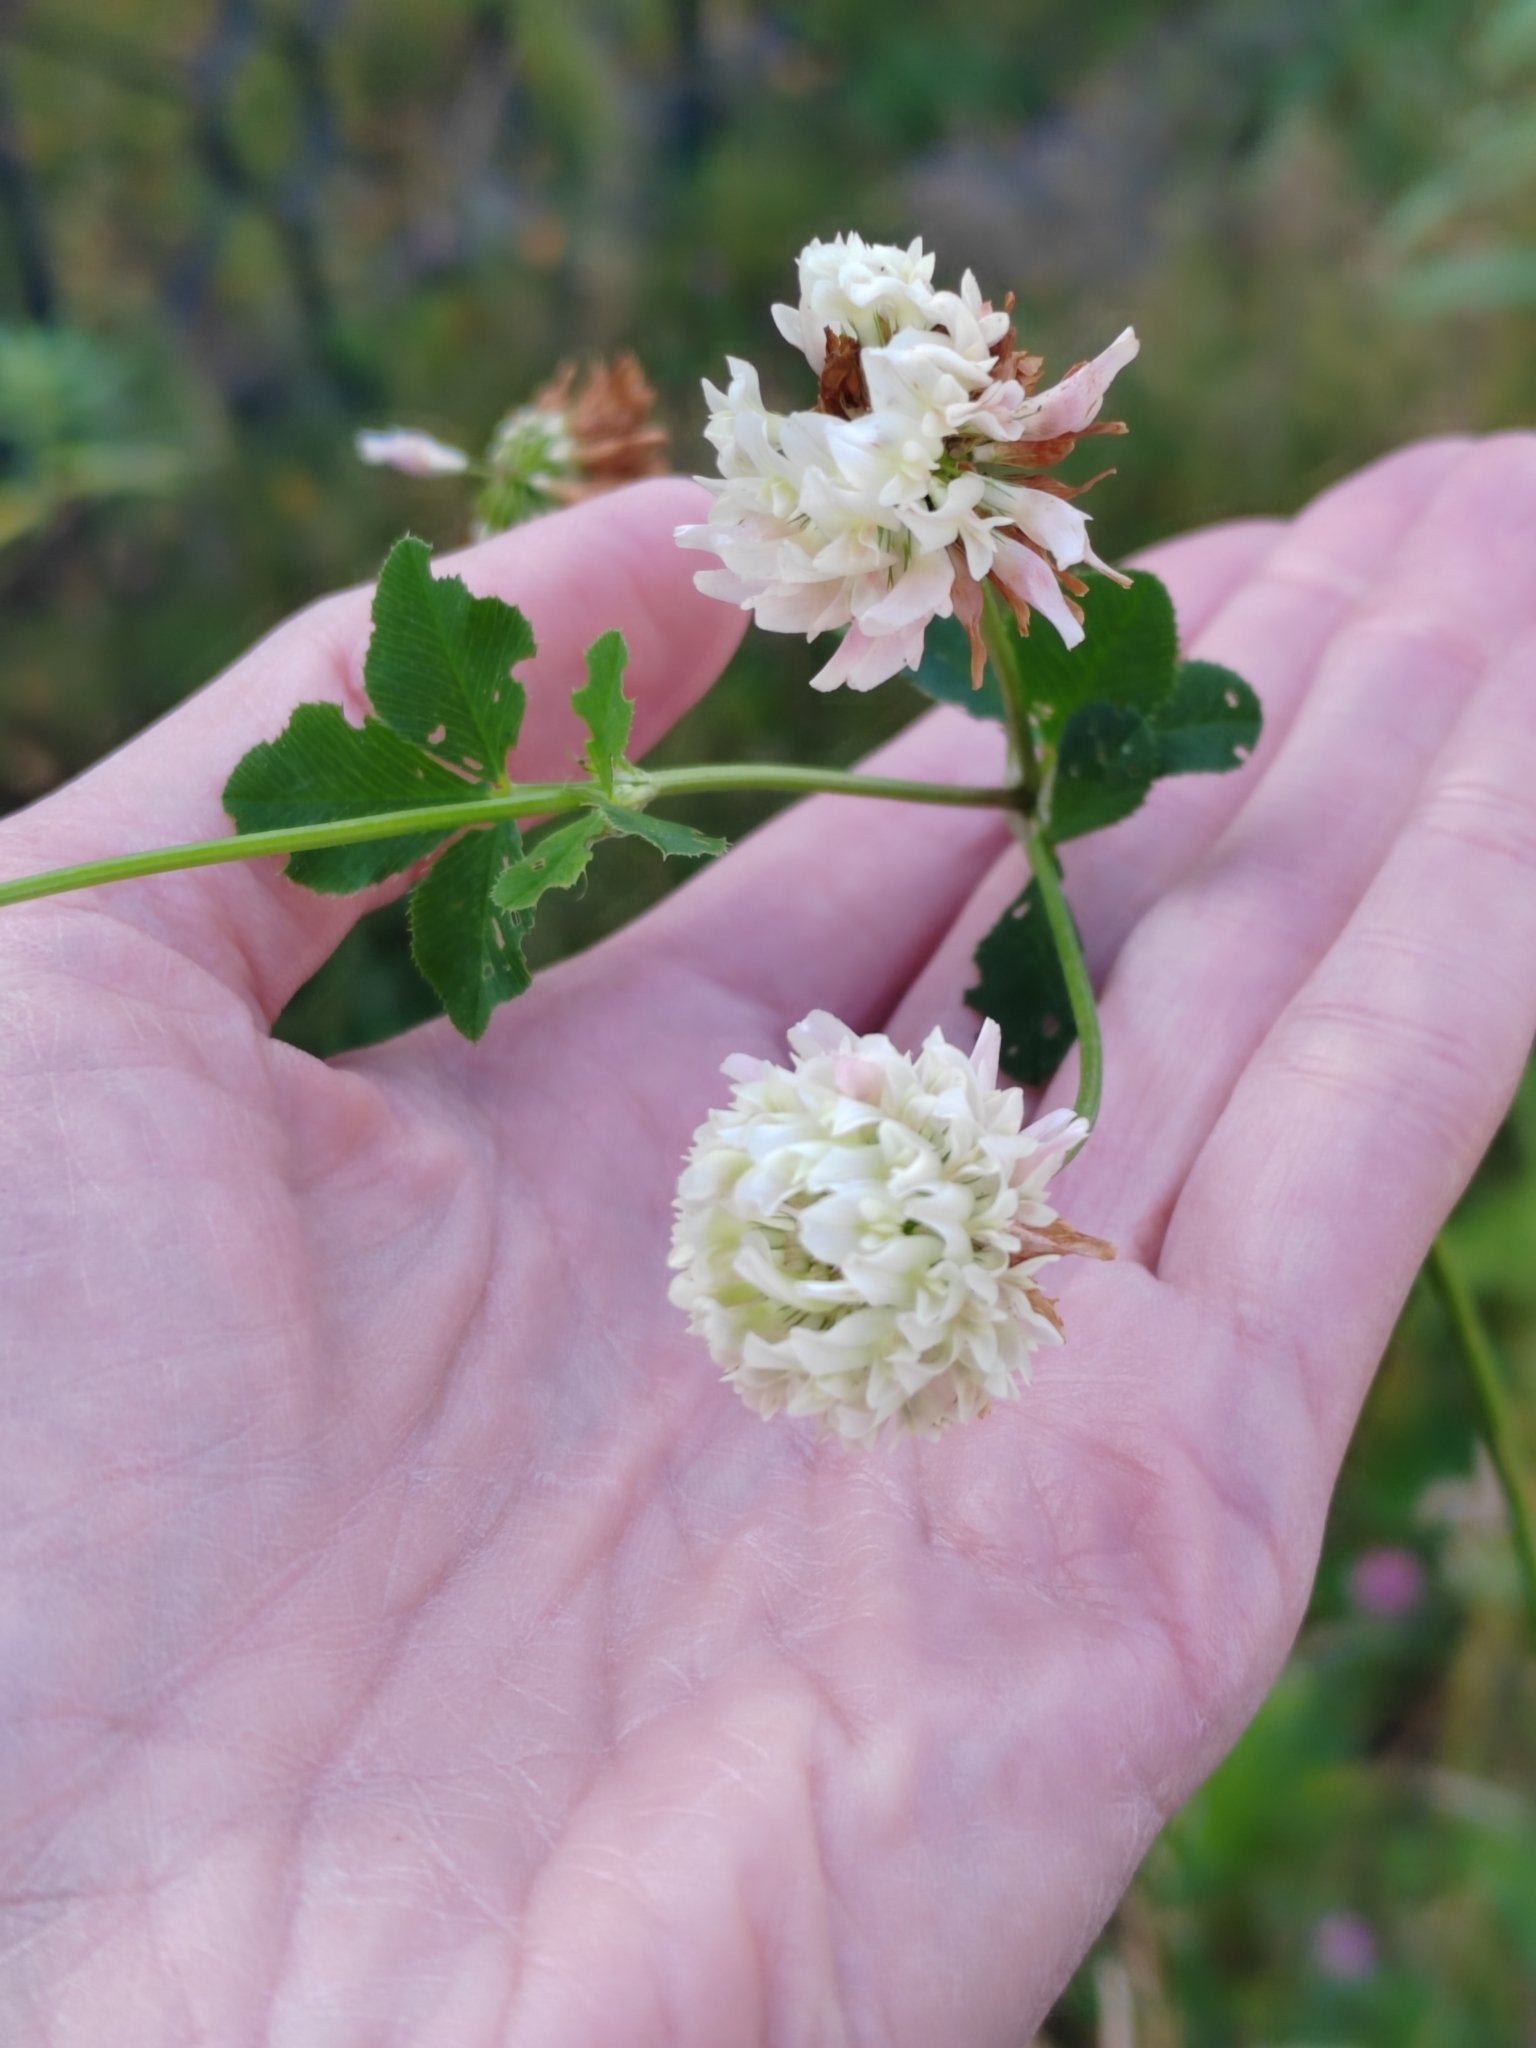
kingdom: Plantae
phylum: Tracheophyta
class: Magnoliopsida
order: Fabales
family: Fabaceae
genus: Trifolium
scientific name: Trifolium hybridum
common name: Alsike clover
